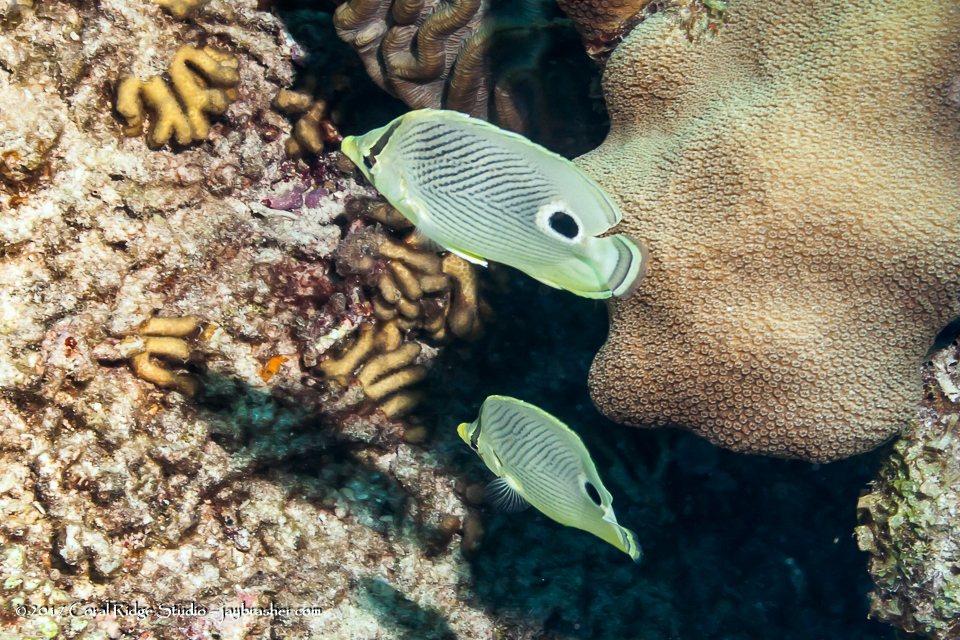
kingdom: Animalia
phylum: Chordata
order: Perciformes
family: Chaetodontidae
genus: Chaetodon
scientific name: Chaetodon capistratus
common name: Kete
